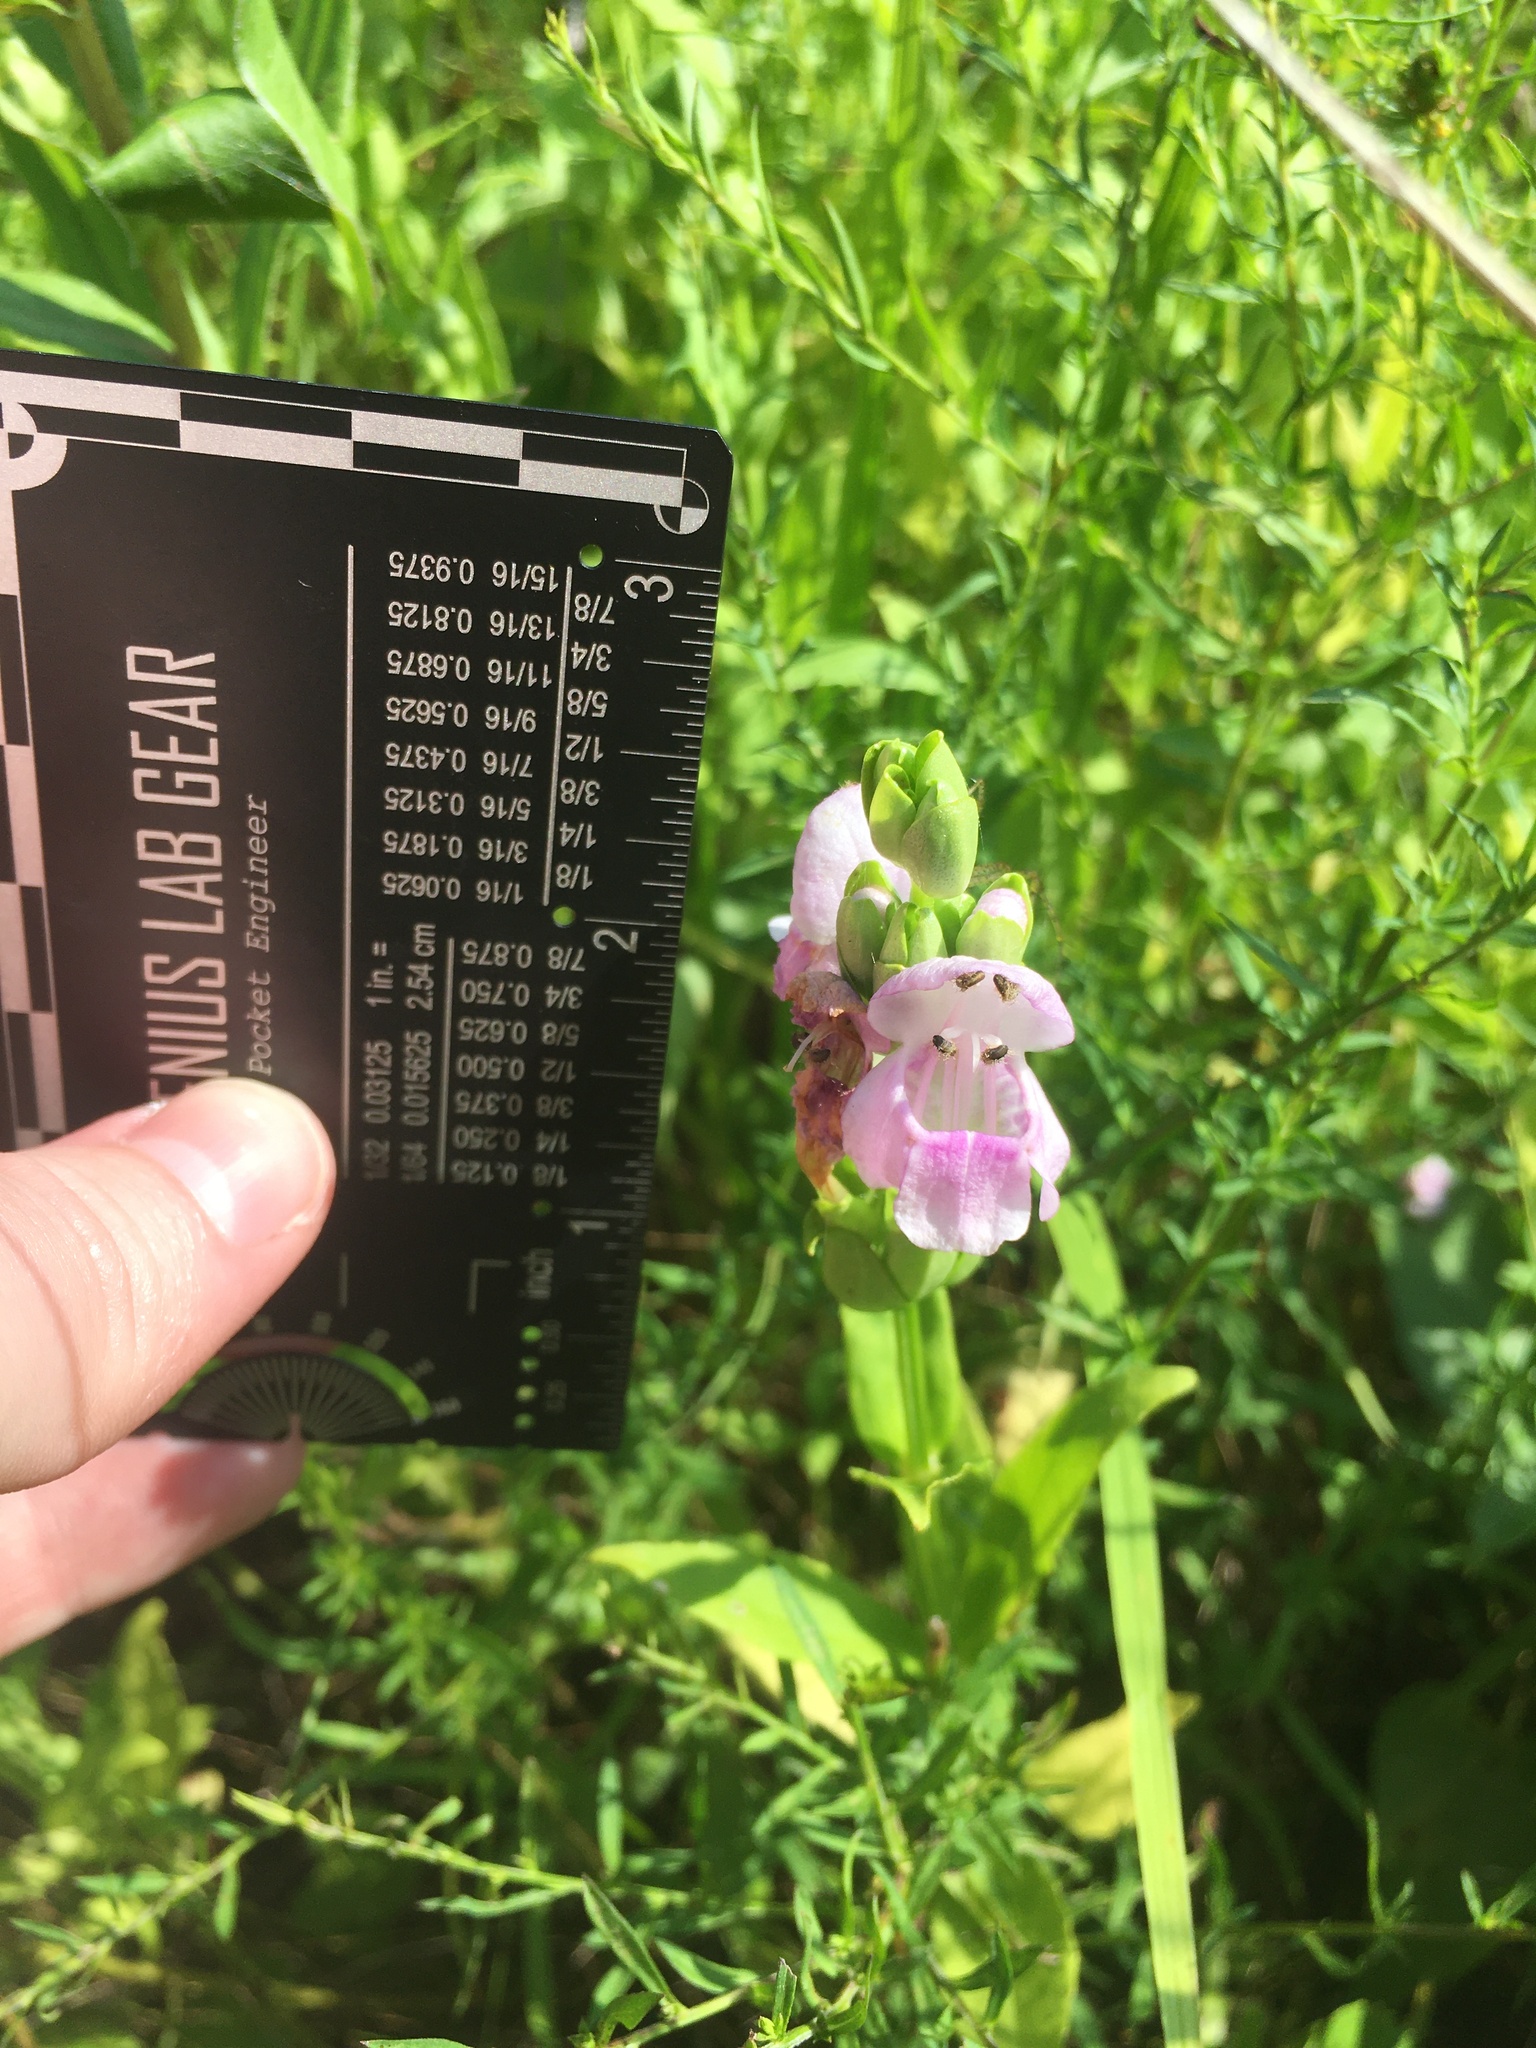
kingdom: Plantae
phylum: Tracheophyta
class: Magnoliopsida
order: Lamiales
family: Lamiaceae
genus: Macbridea
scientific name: Macbridea caroliniana
